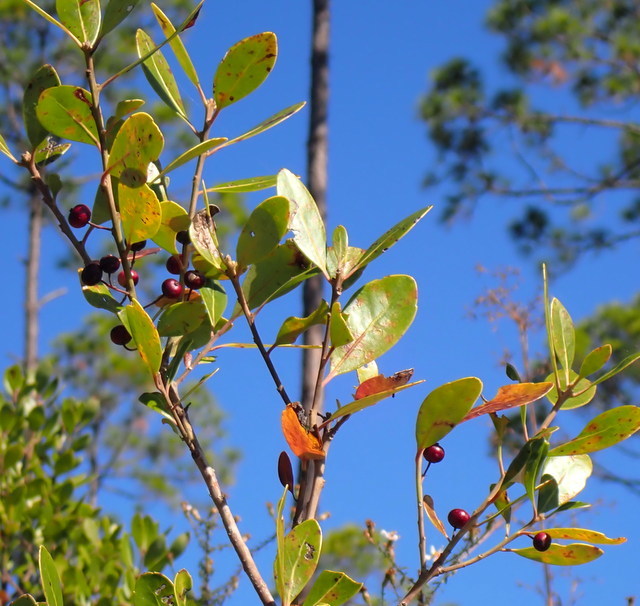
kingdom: Plantae
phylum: Tracheophyta
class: Magnoliopsida
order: Aquifoliales
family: Aquifoliaceae
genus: Ilex
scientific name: Ilex glabra
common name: Bitter gallberry
